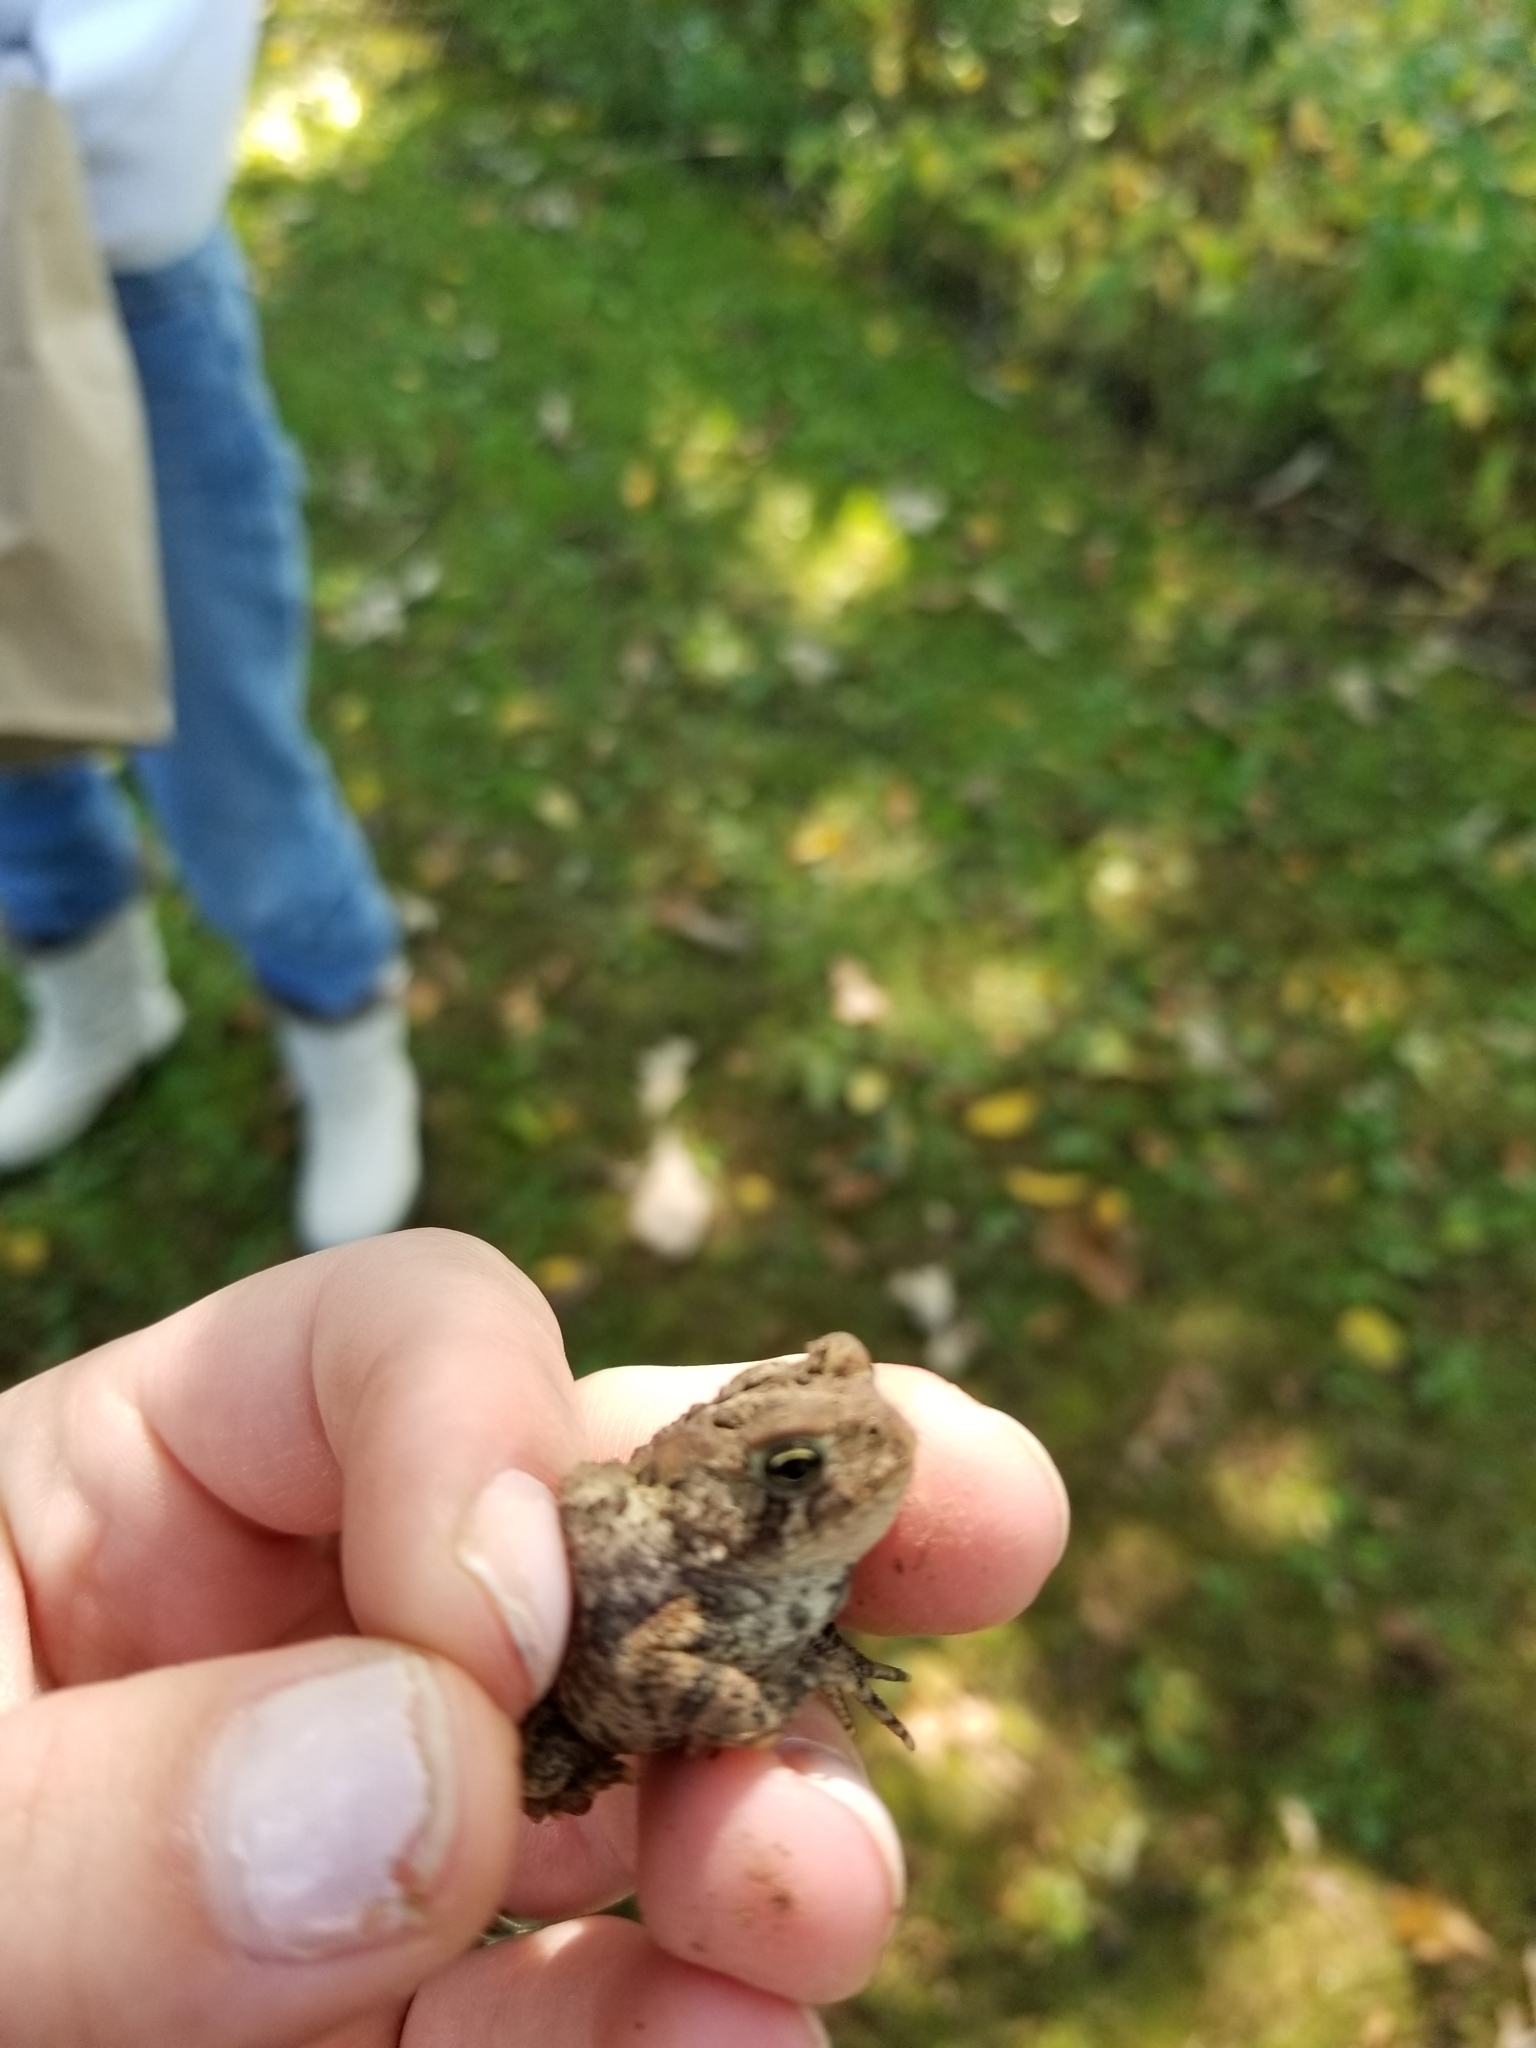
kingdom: Animalia
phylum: Chordata
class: Amphibia
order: Anura
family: Bufonidae
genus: Anaxyrus
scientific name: Anaxyrus americanus
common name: American toad
